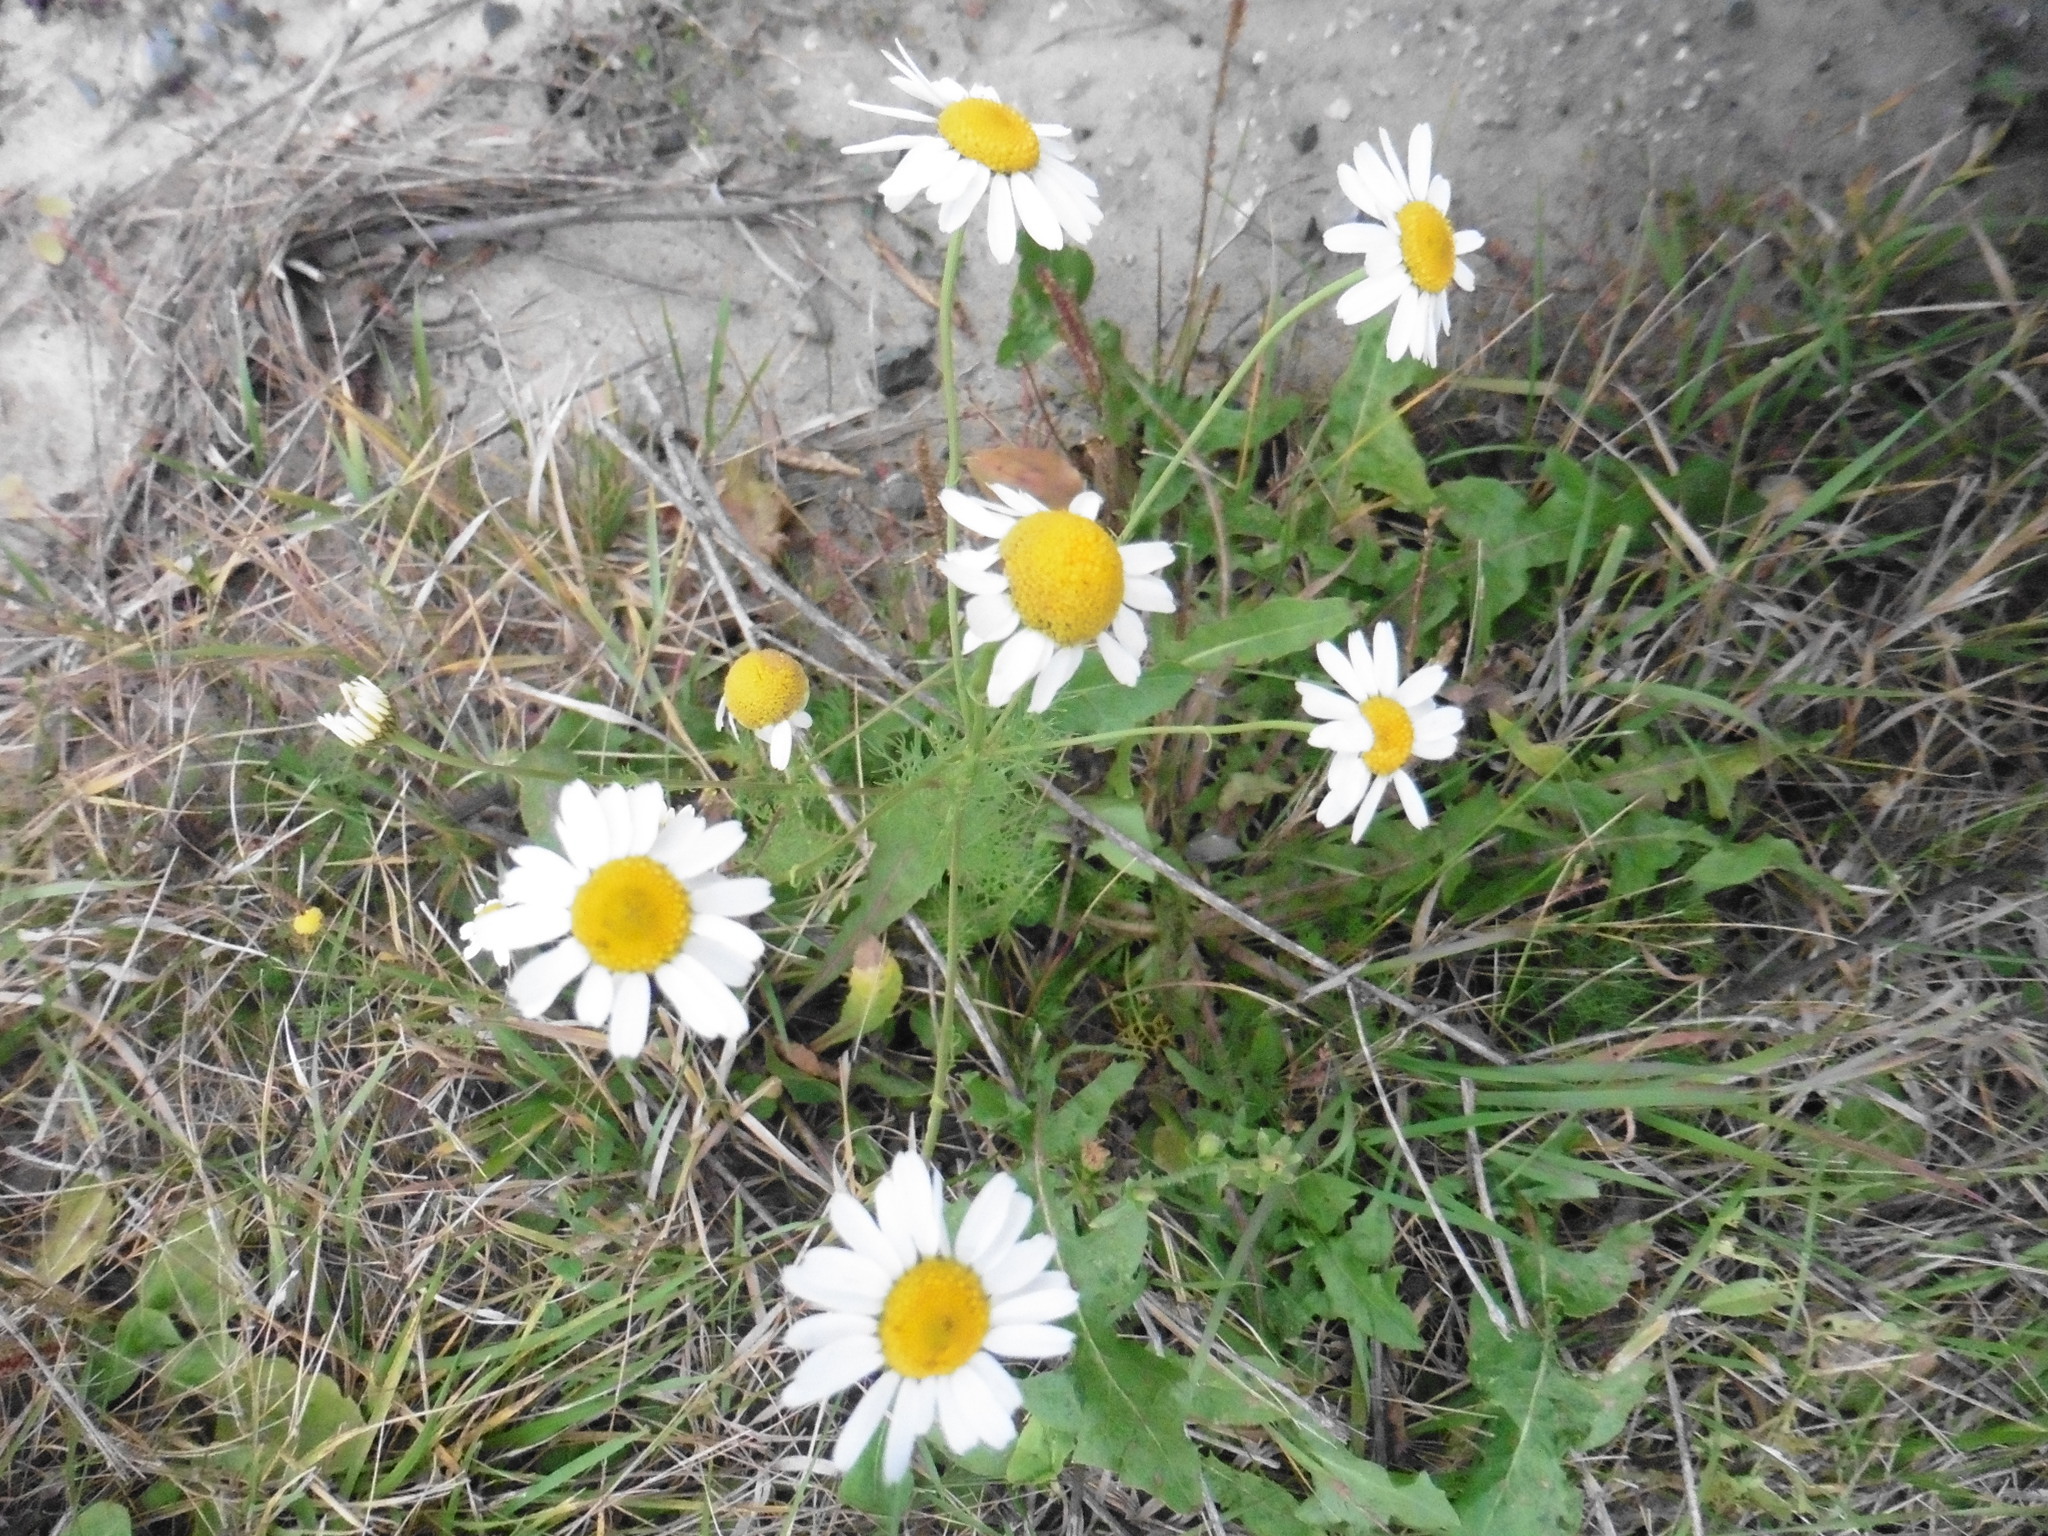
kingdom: Plantae
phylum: Tracheophyta
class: Magnoliopsida
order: Asterales
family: Asteraceae
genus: Tripleurospermum
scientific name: Tripleurospermum inodorum
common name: Scentless mayweed
